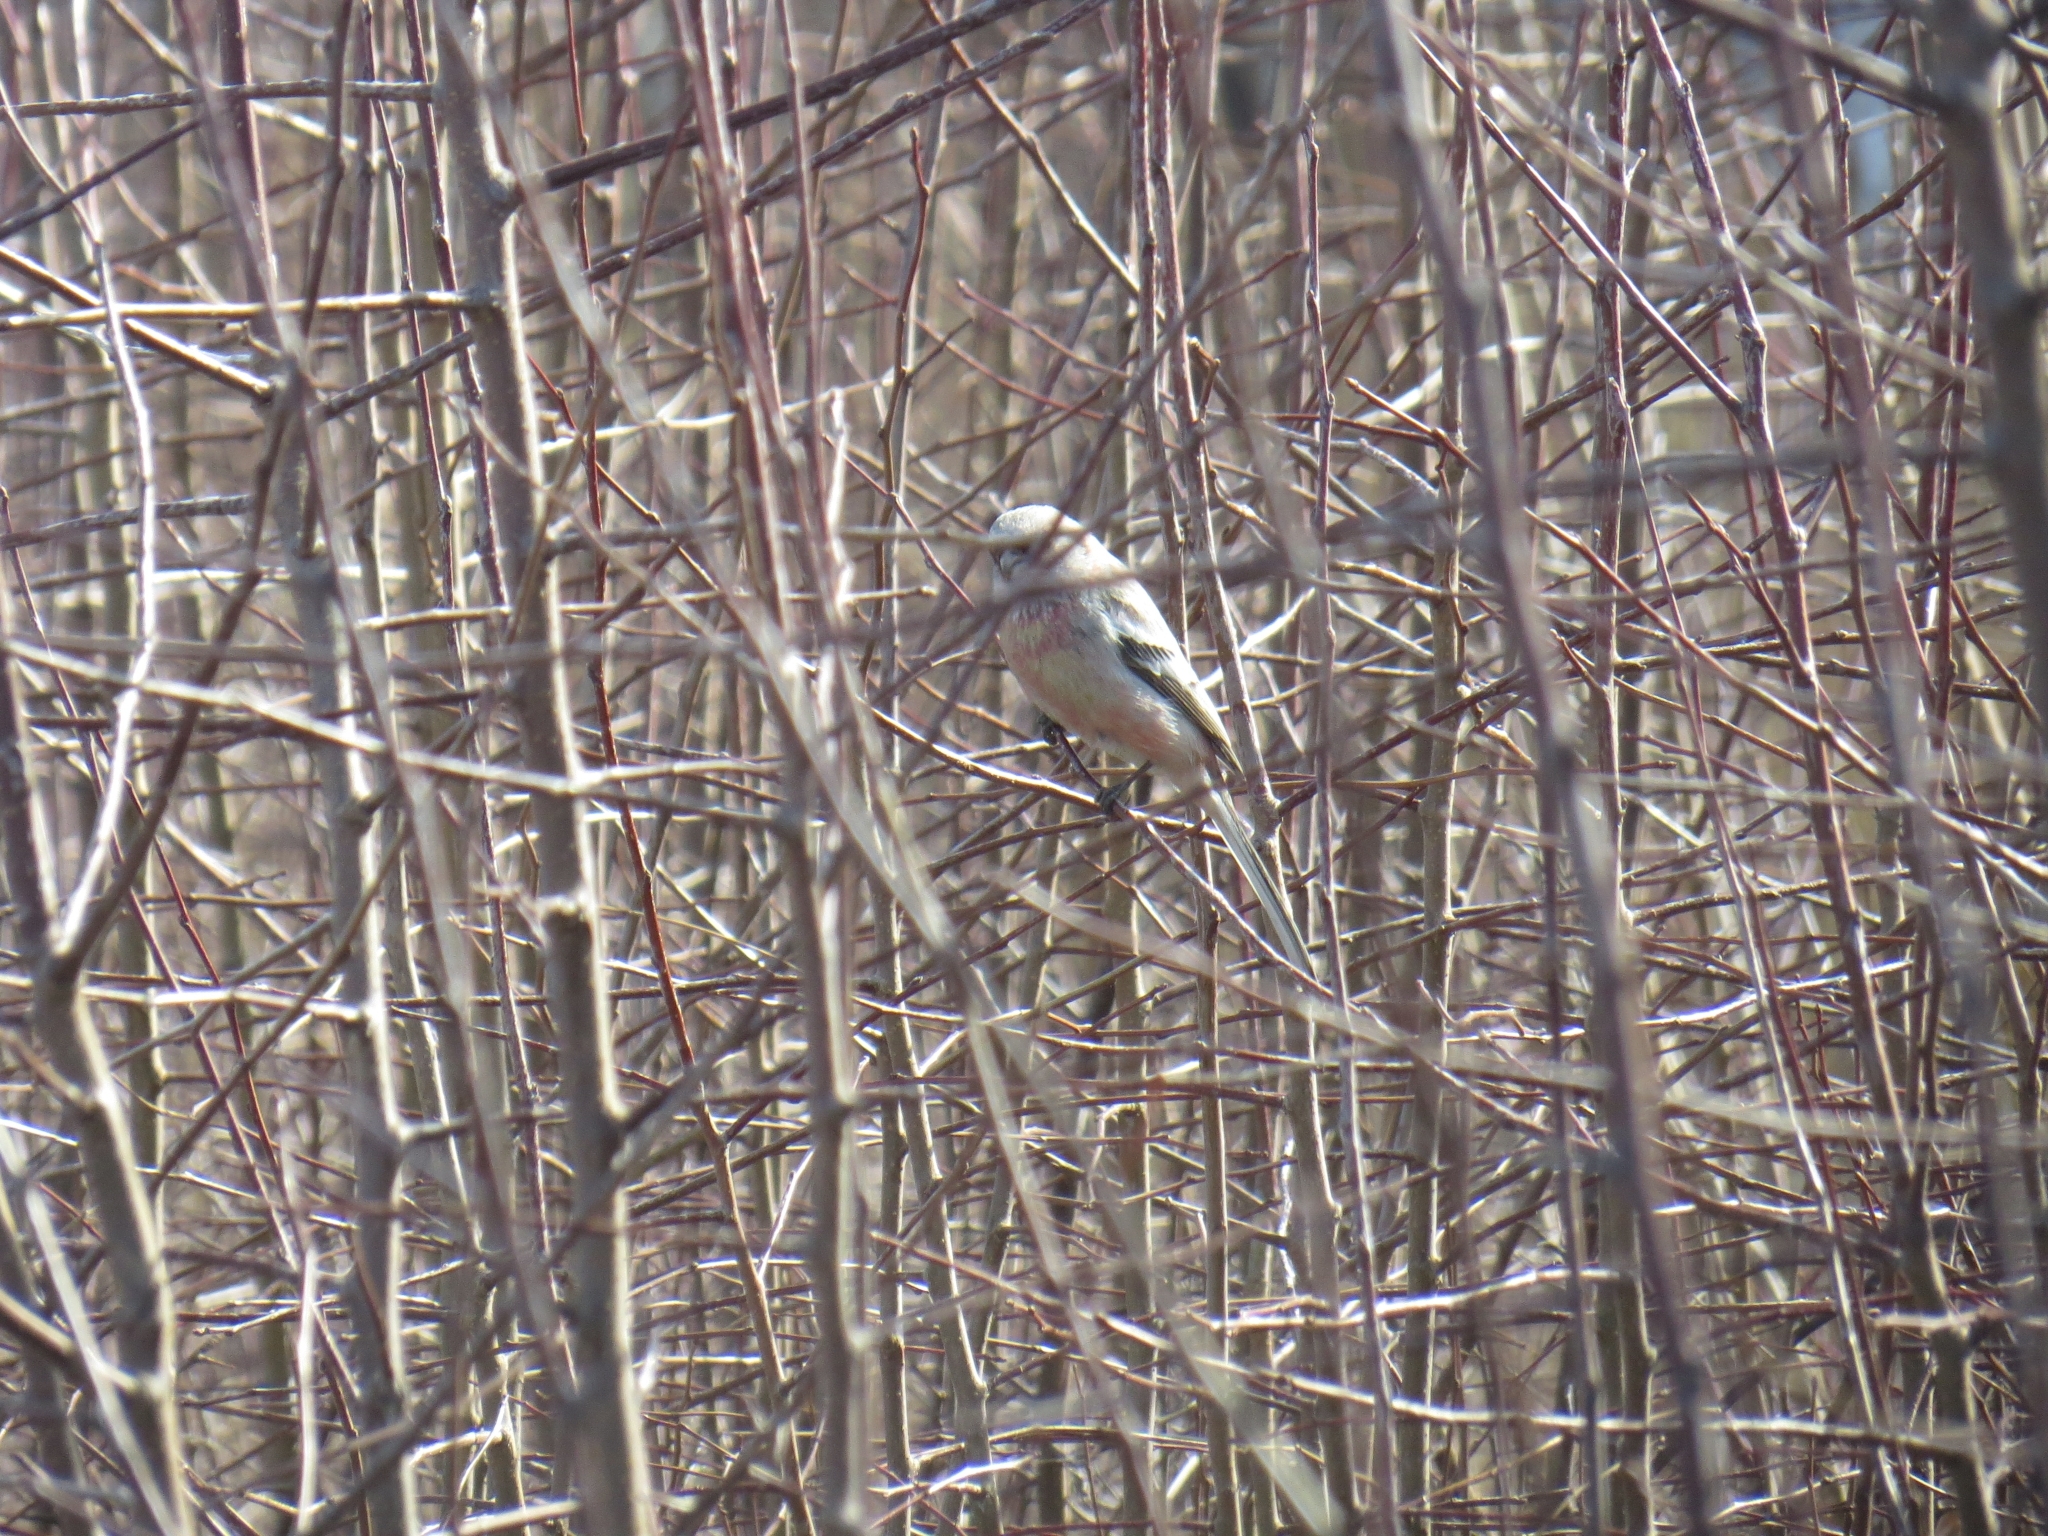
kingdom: Animalia
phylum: Chordata
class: Aves
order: Passeriformes
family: Fringillidae
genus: Carpodacus
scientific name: Carpodacus sibiricus
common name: Long-tailed rosefinch
